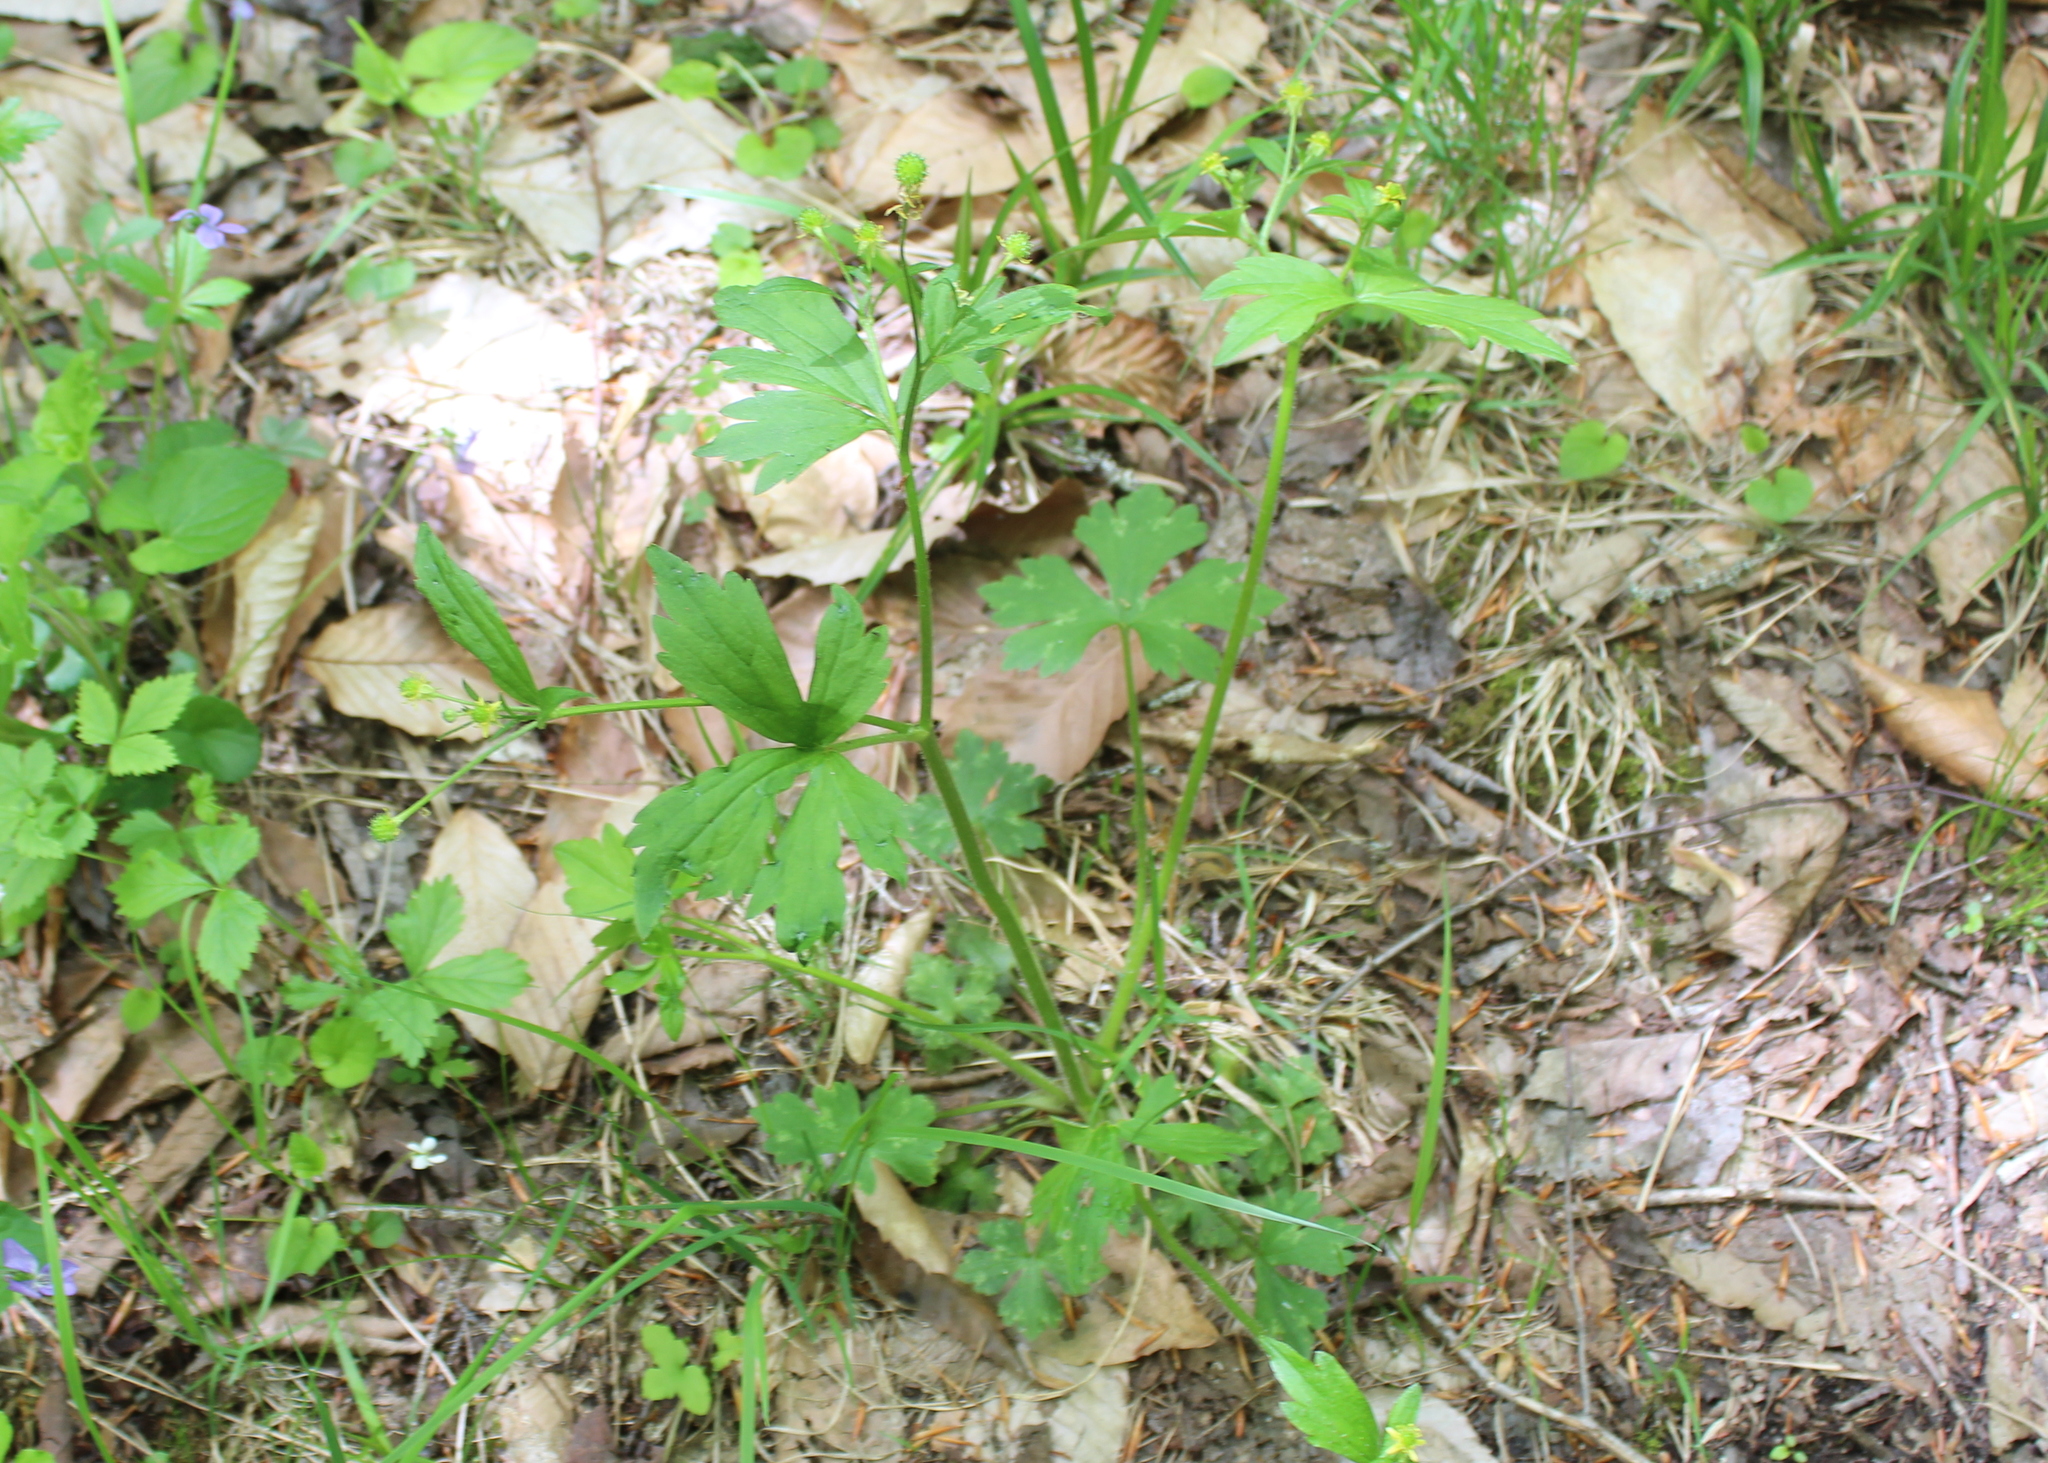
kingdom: Plantae
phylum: Tracheophyta
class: Magnoliopsida
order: Ranunculales
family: Ranunculaceae
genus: Ranunculus
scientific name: Ranunculus recurvatus
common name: Blisterwort
